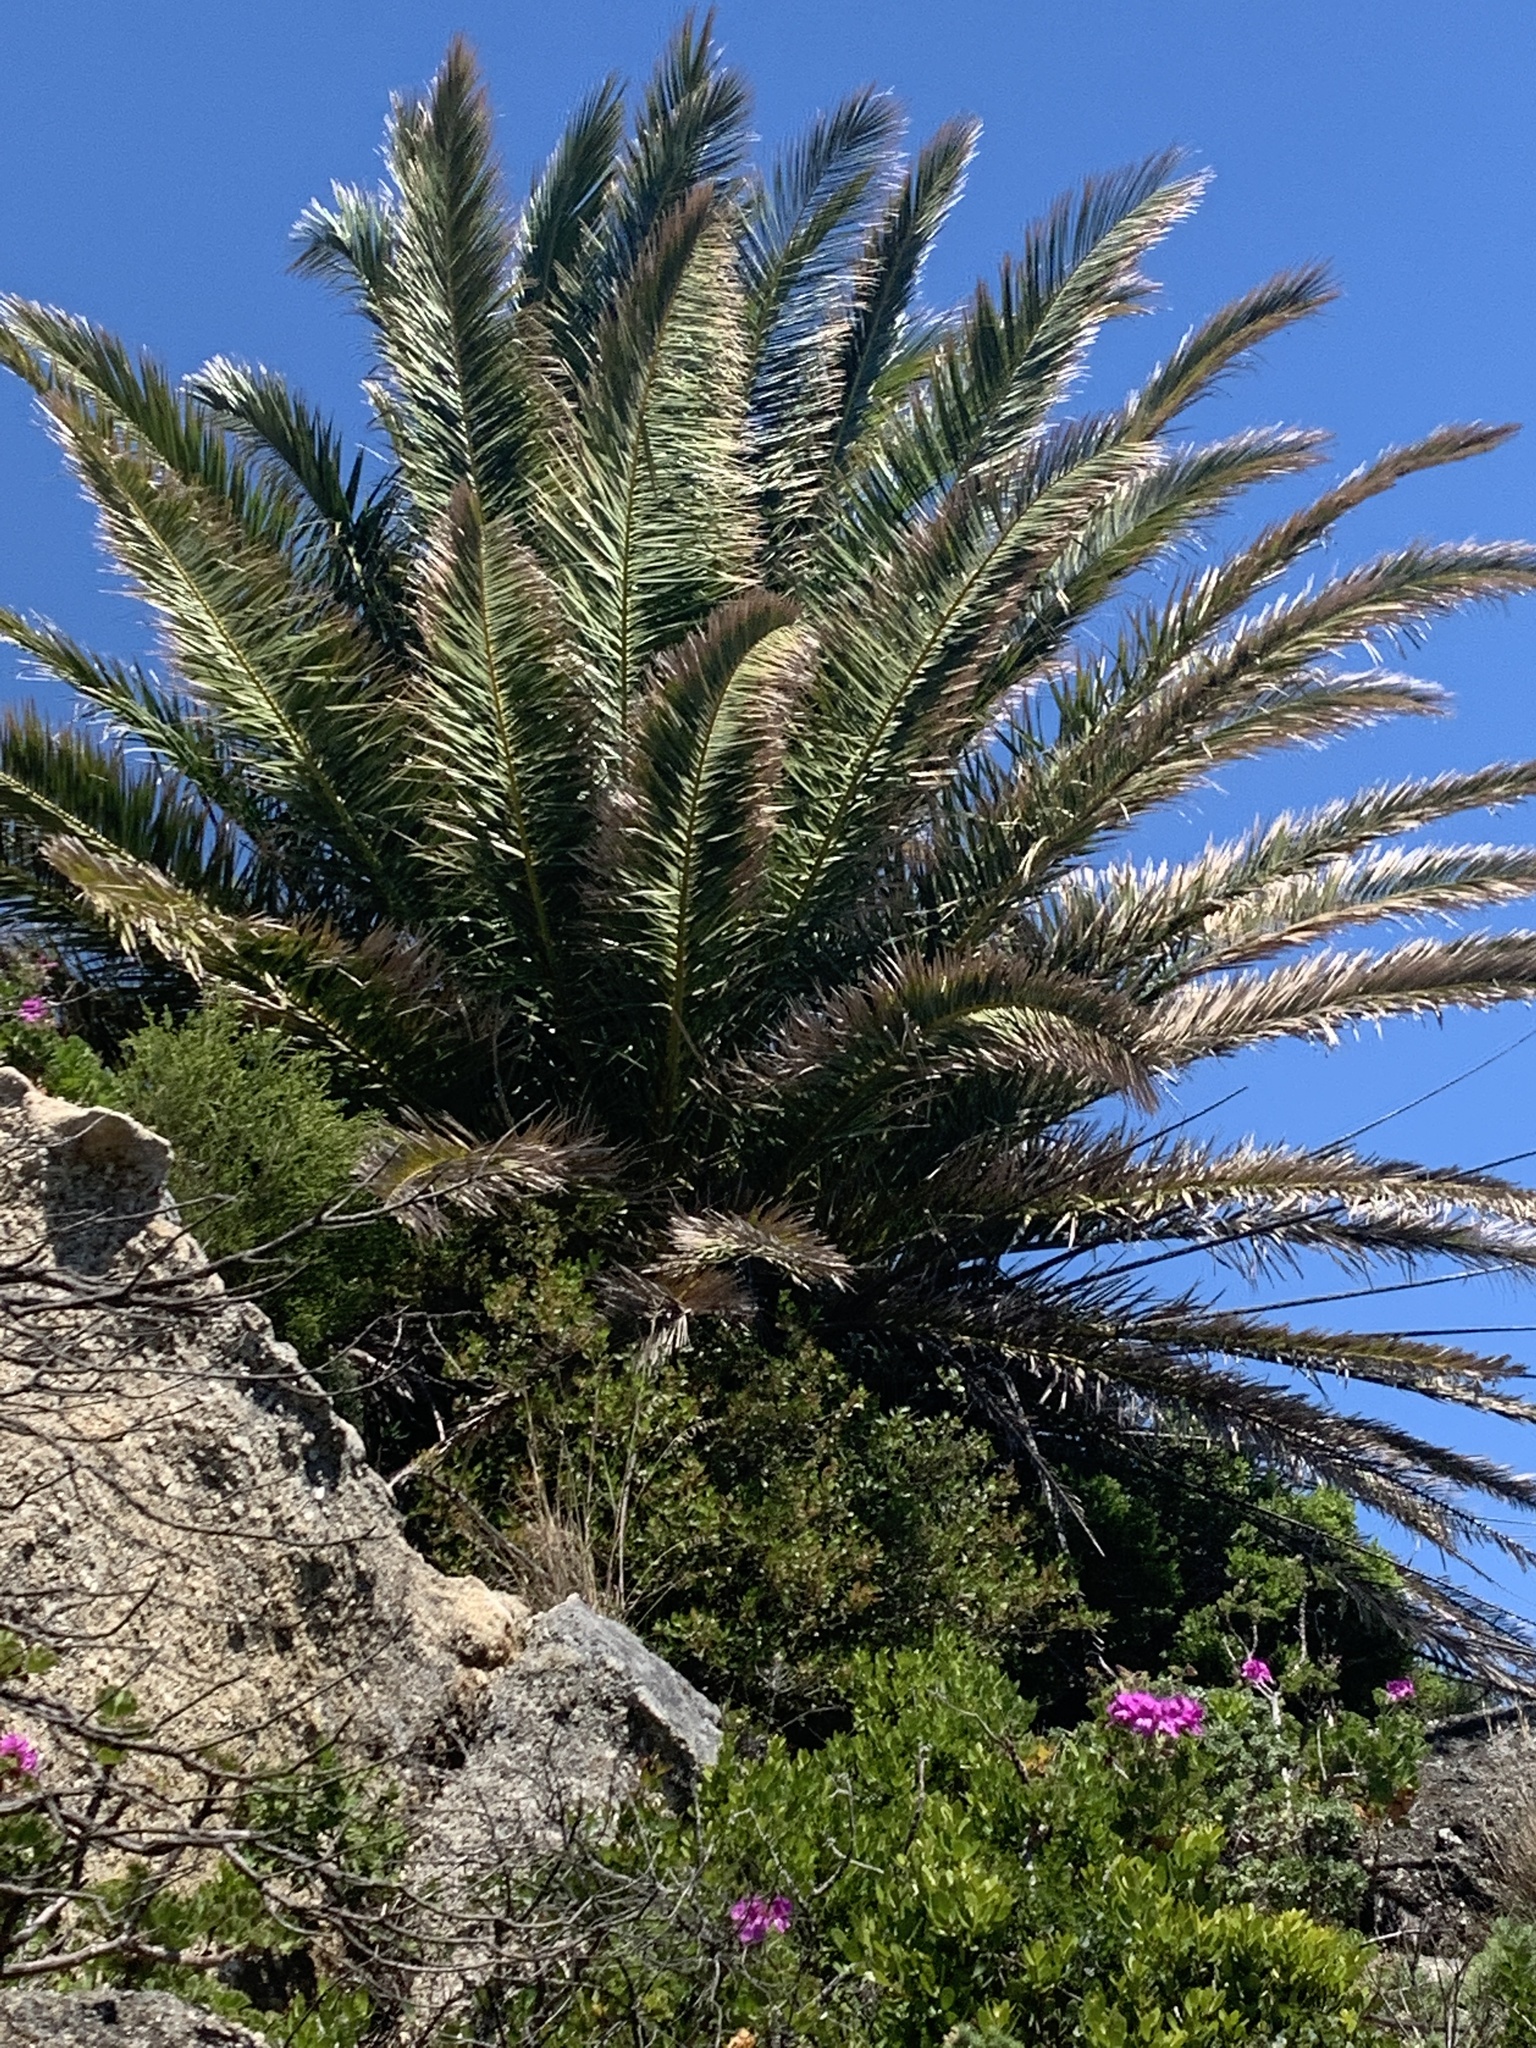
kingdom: Plantae
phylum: Tracheophyta
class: Liliopsida
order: Arecales
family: Arecaceae
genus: Phoenix
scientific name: Phoenix canariensis
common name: Canary island date palm
